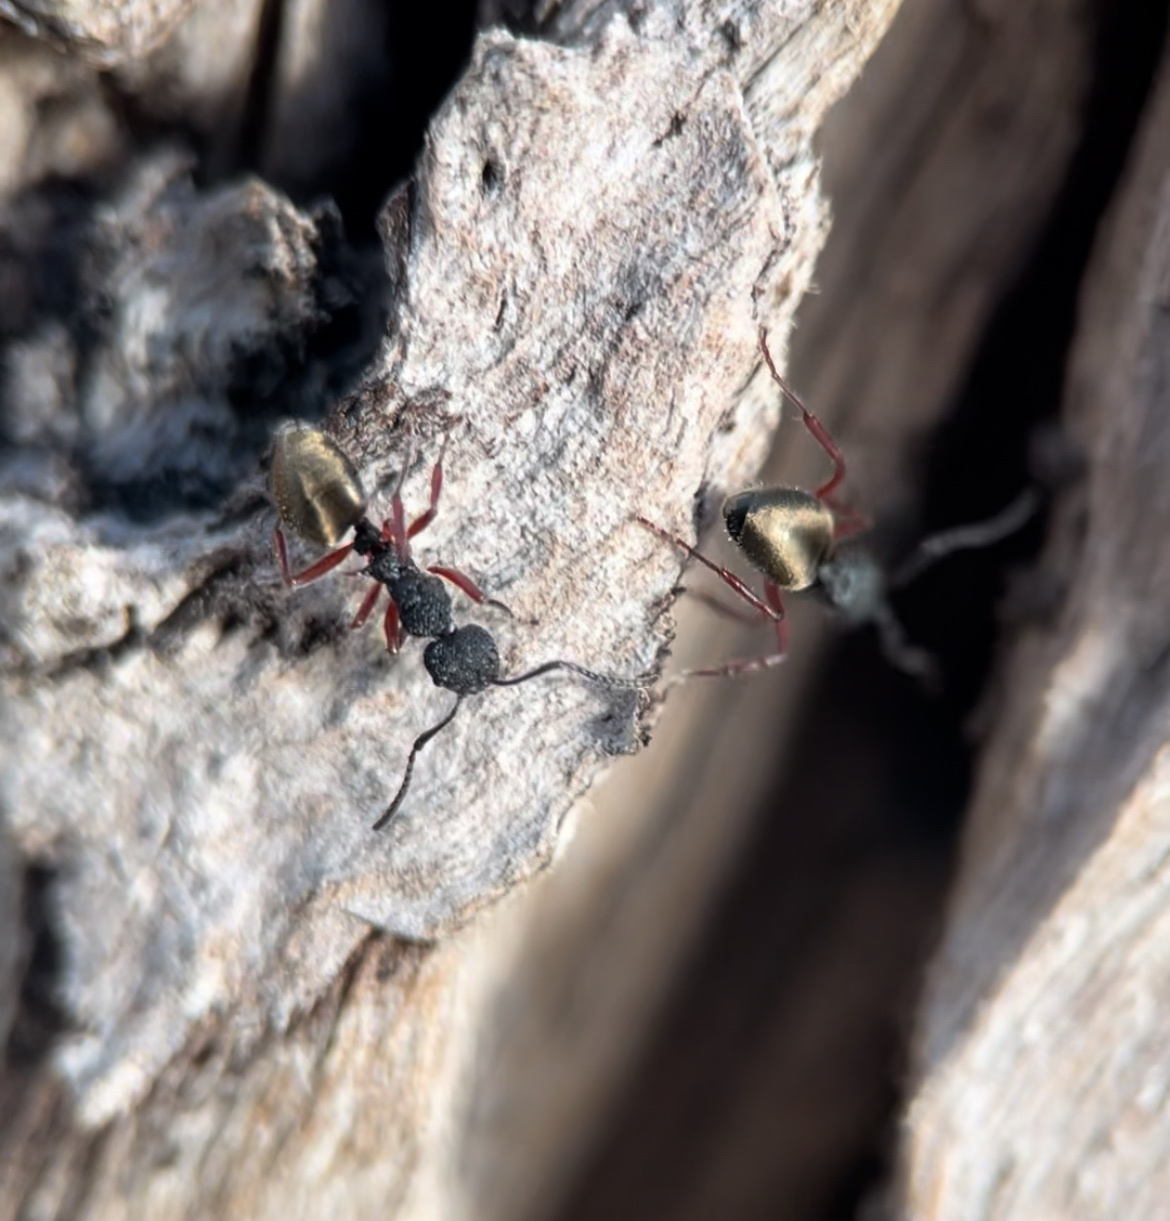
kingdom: Animalia
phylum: Arthropoda
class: Insecta
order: Hymenoptera
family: Formicidae
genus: Dolichoderus
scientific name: Dolichoderus scabridus
